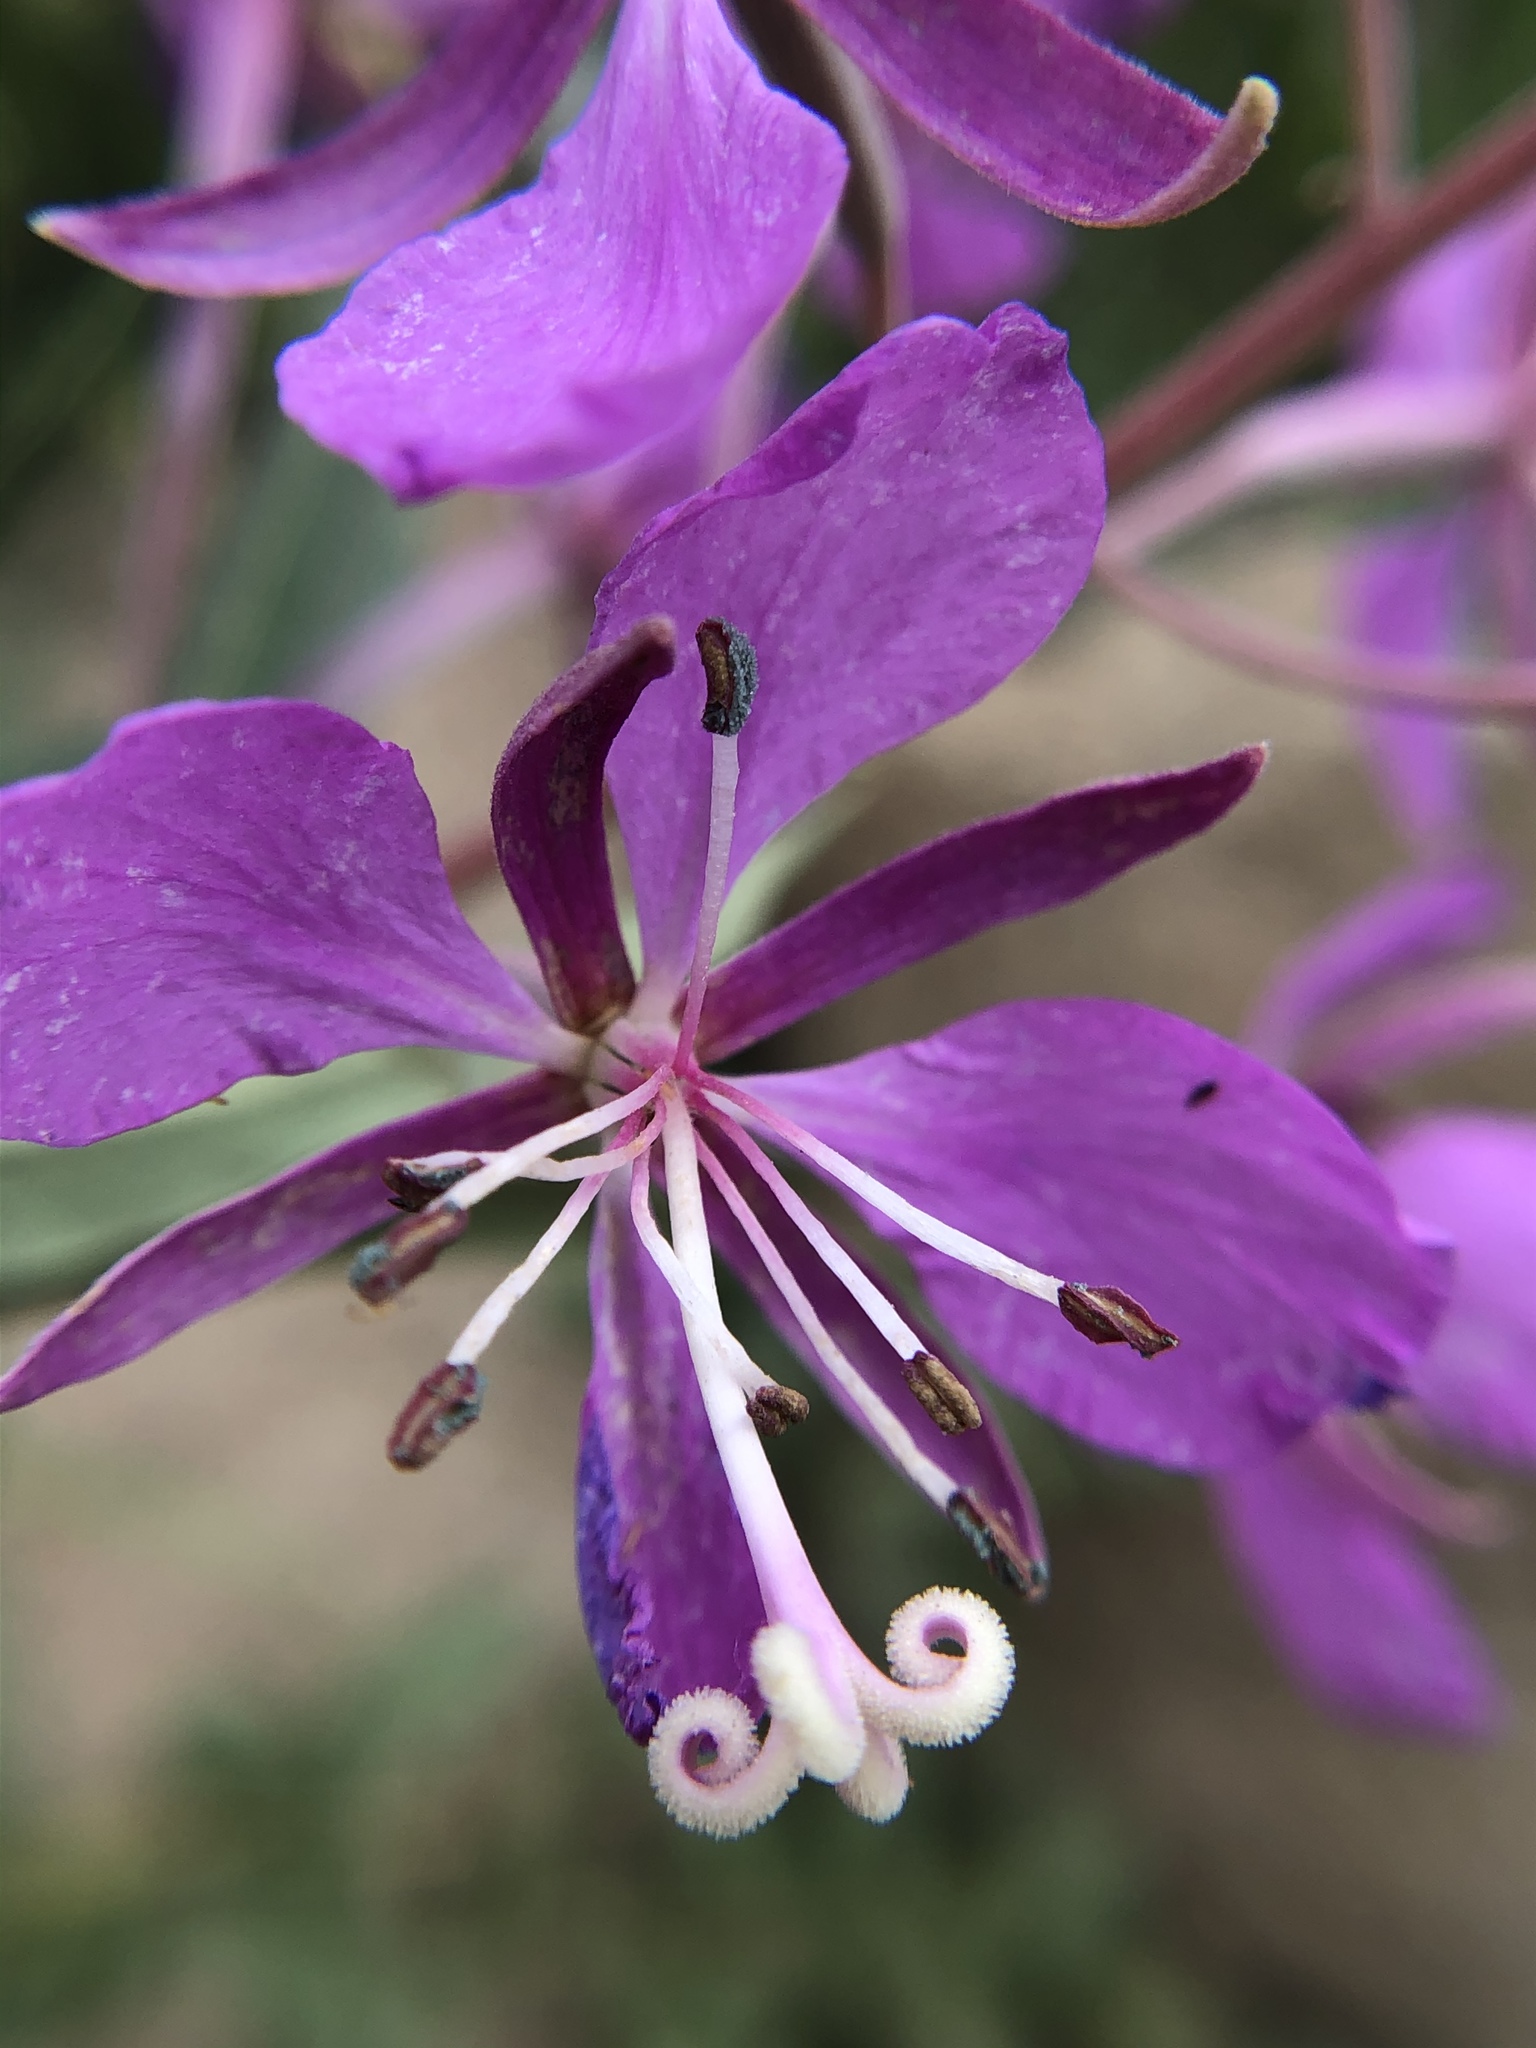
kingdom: Plantae
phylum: Tracheophyta
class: Magnoliopsida
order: Myrtales
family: Onagraceae
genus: Chamaenerion
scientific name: Chamaenerion angustifolium
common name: Fireweed
